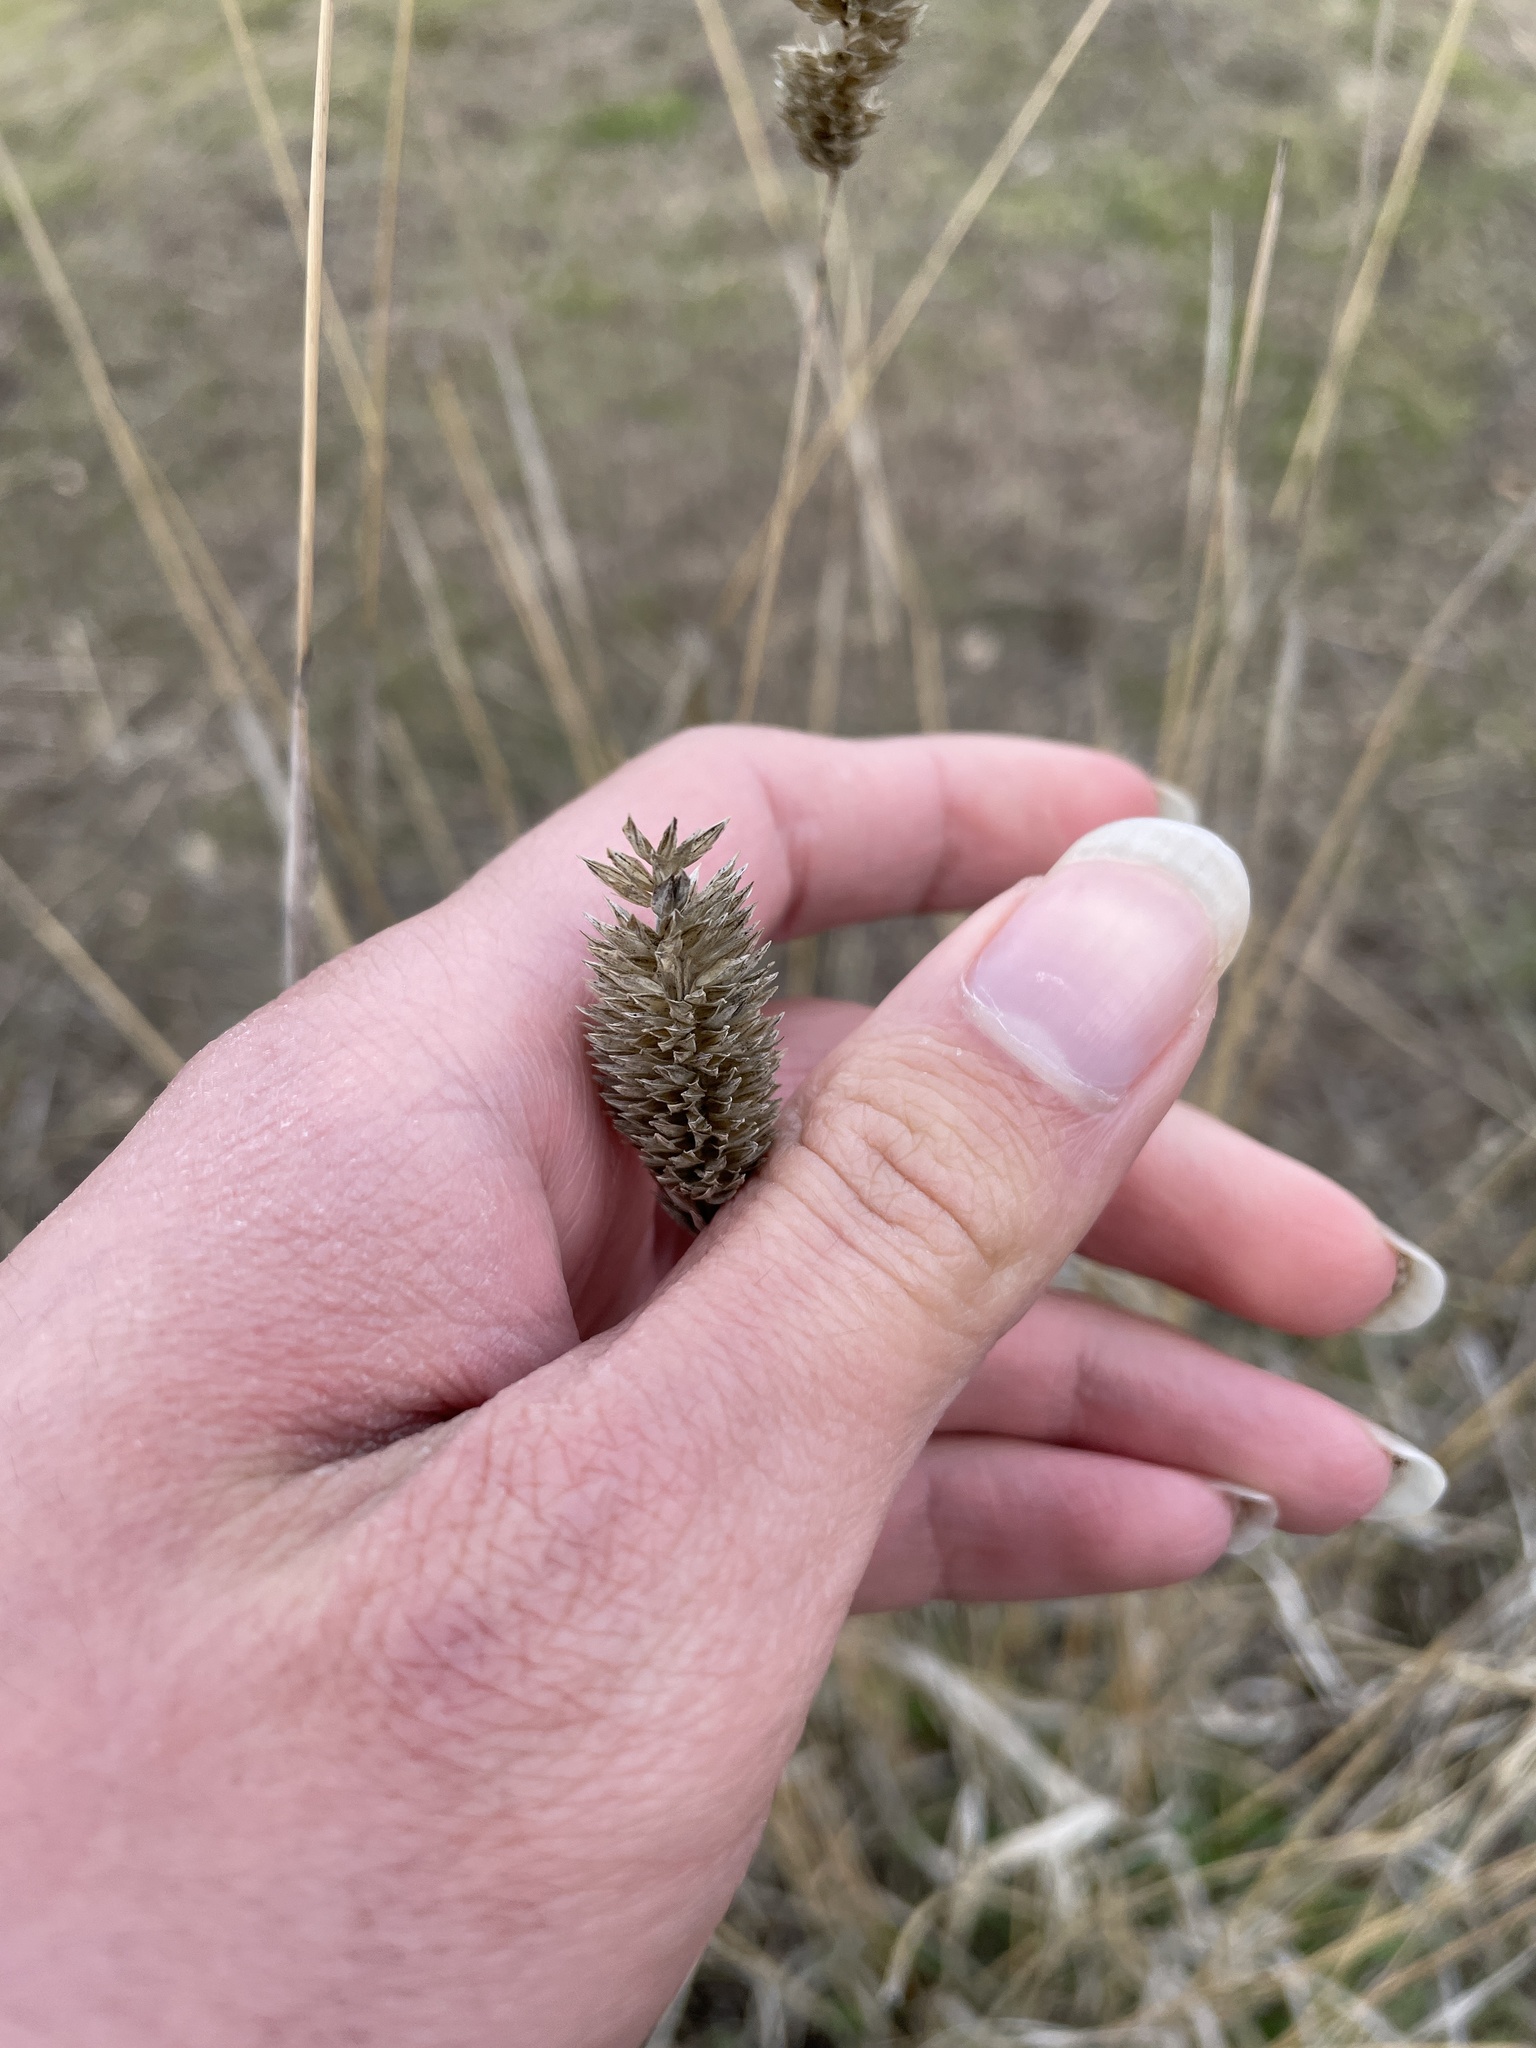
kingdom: Plantae
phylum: Tracheophyta
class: Liliopsida
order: Poales
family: Poaceae
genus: Phalaris
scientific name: Phalaris aquatica
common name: Bulbous canary-grass
